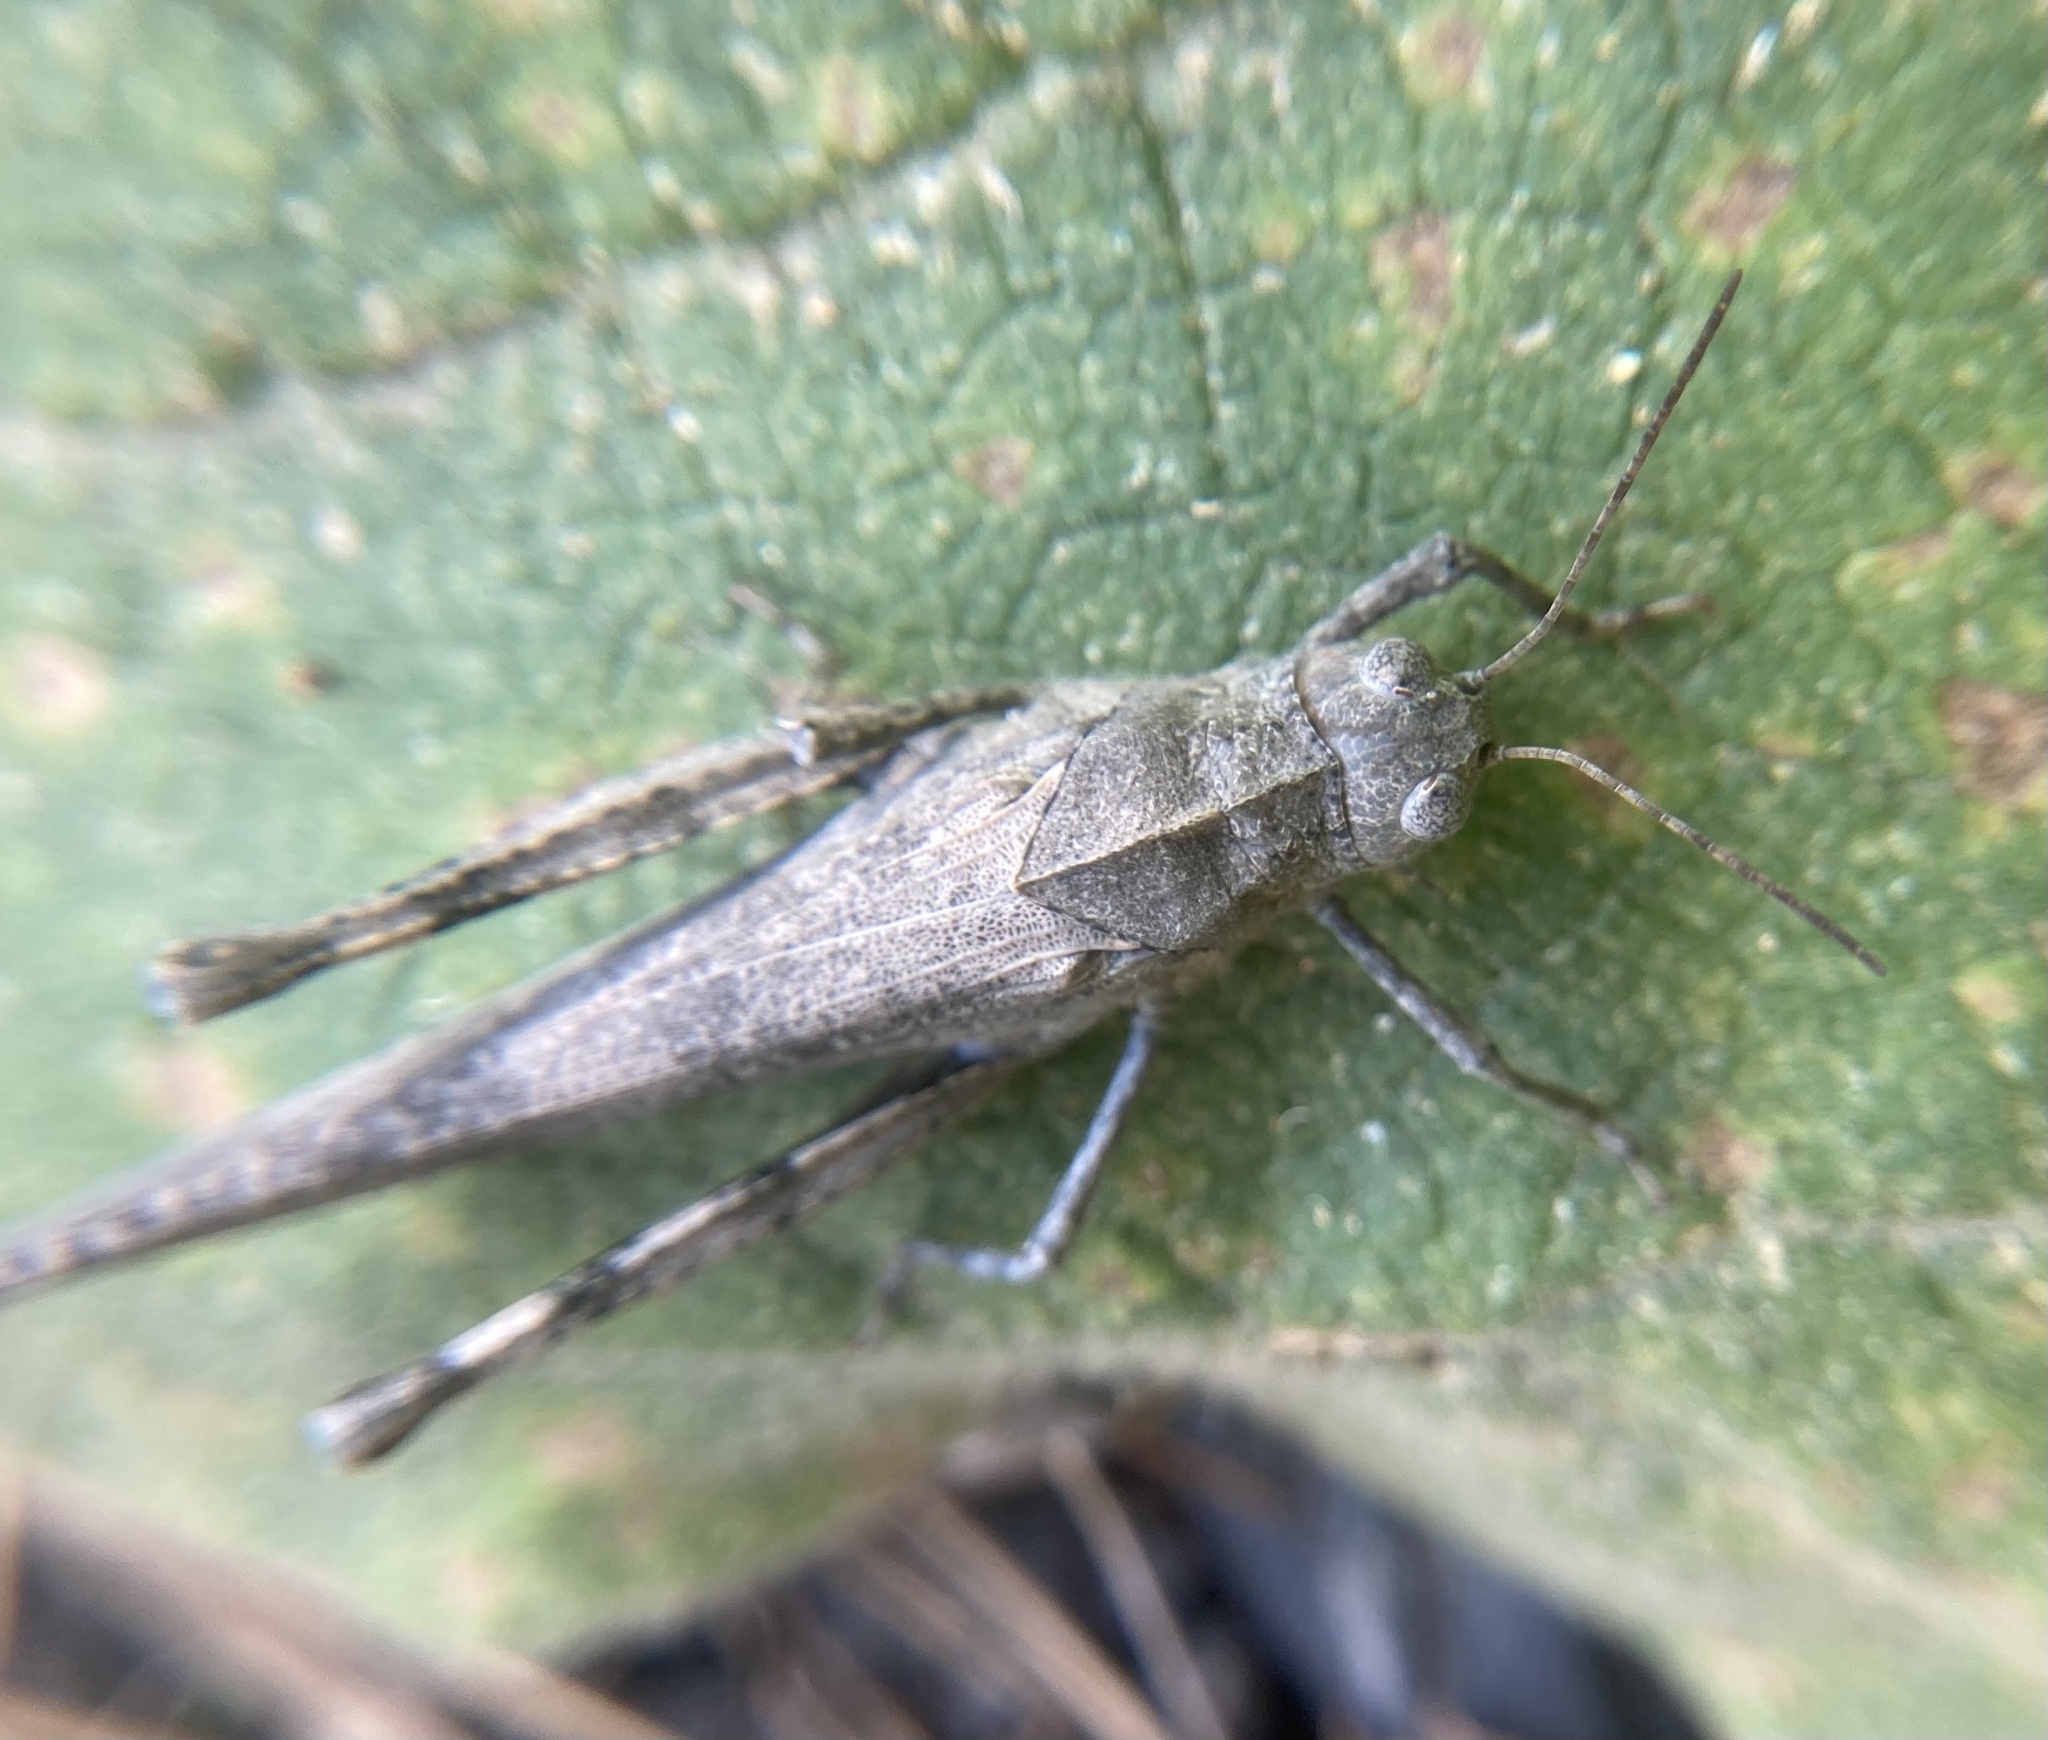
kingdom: Animalia
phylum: Arthropoda
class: Insecta
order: Orthoptera
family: Acrididae
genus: Dissosteira
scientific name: Dissosteira carolina
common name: Carolina grasshopper
